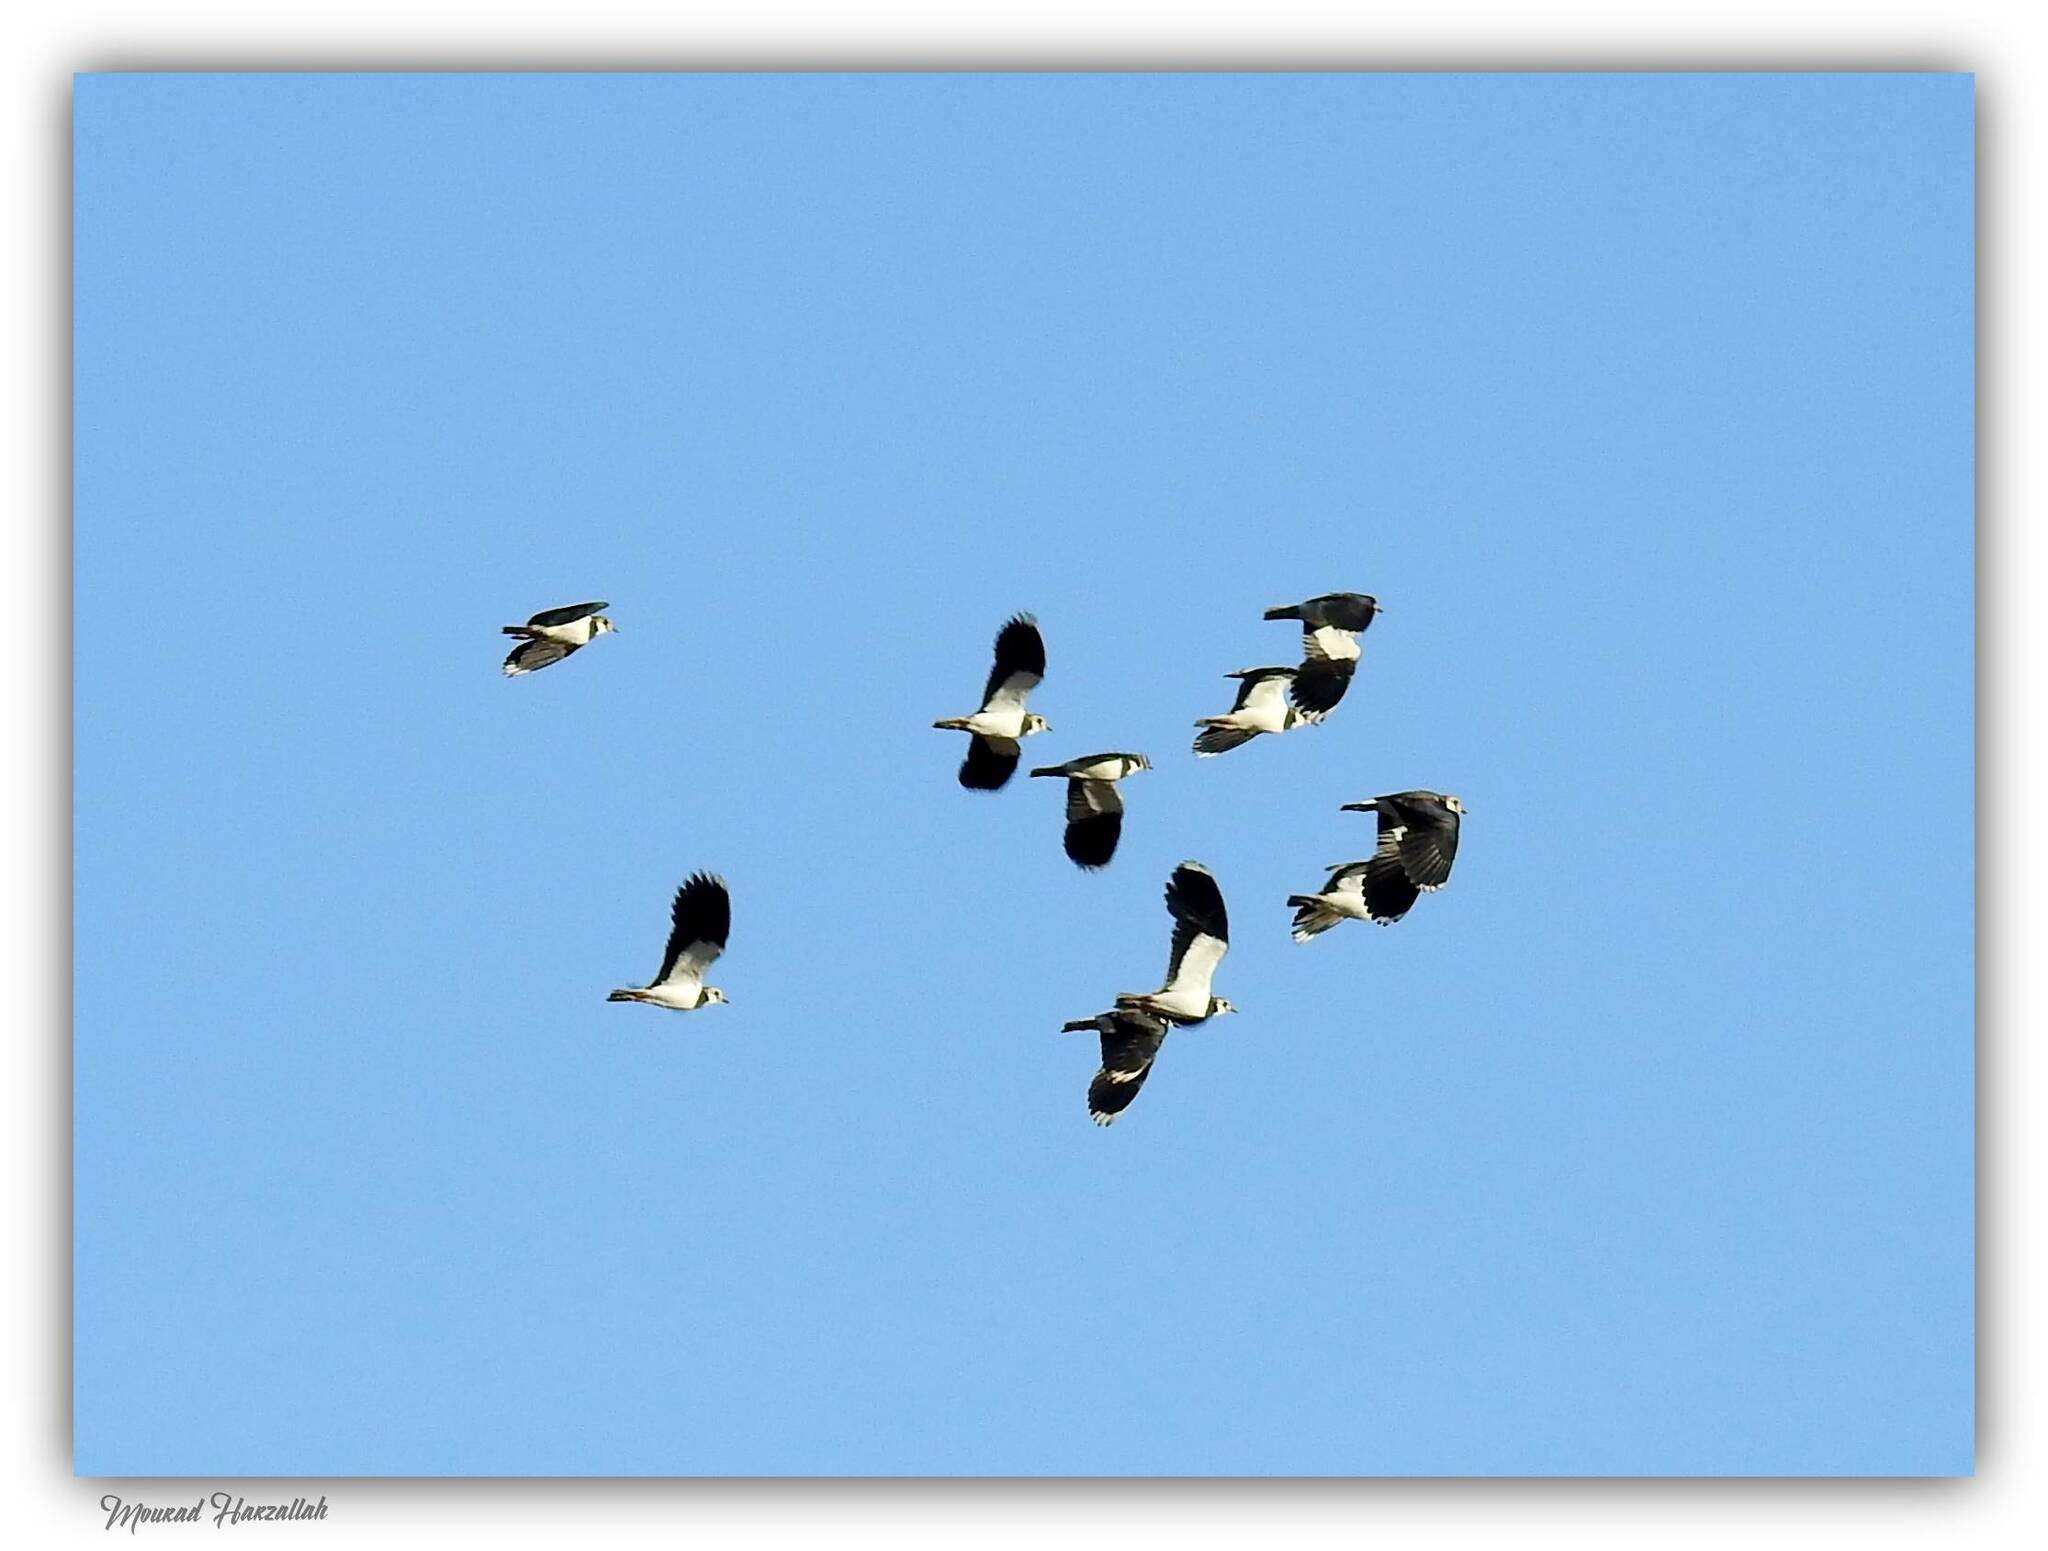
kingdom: Animalia
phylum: Chordata
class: Aves
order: Charadriiformes
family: Charadriidae
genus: Vanellus
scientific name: Vanellus vanellus
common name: Northern lapwing
